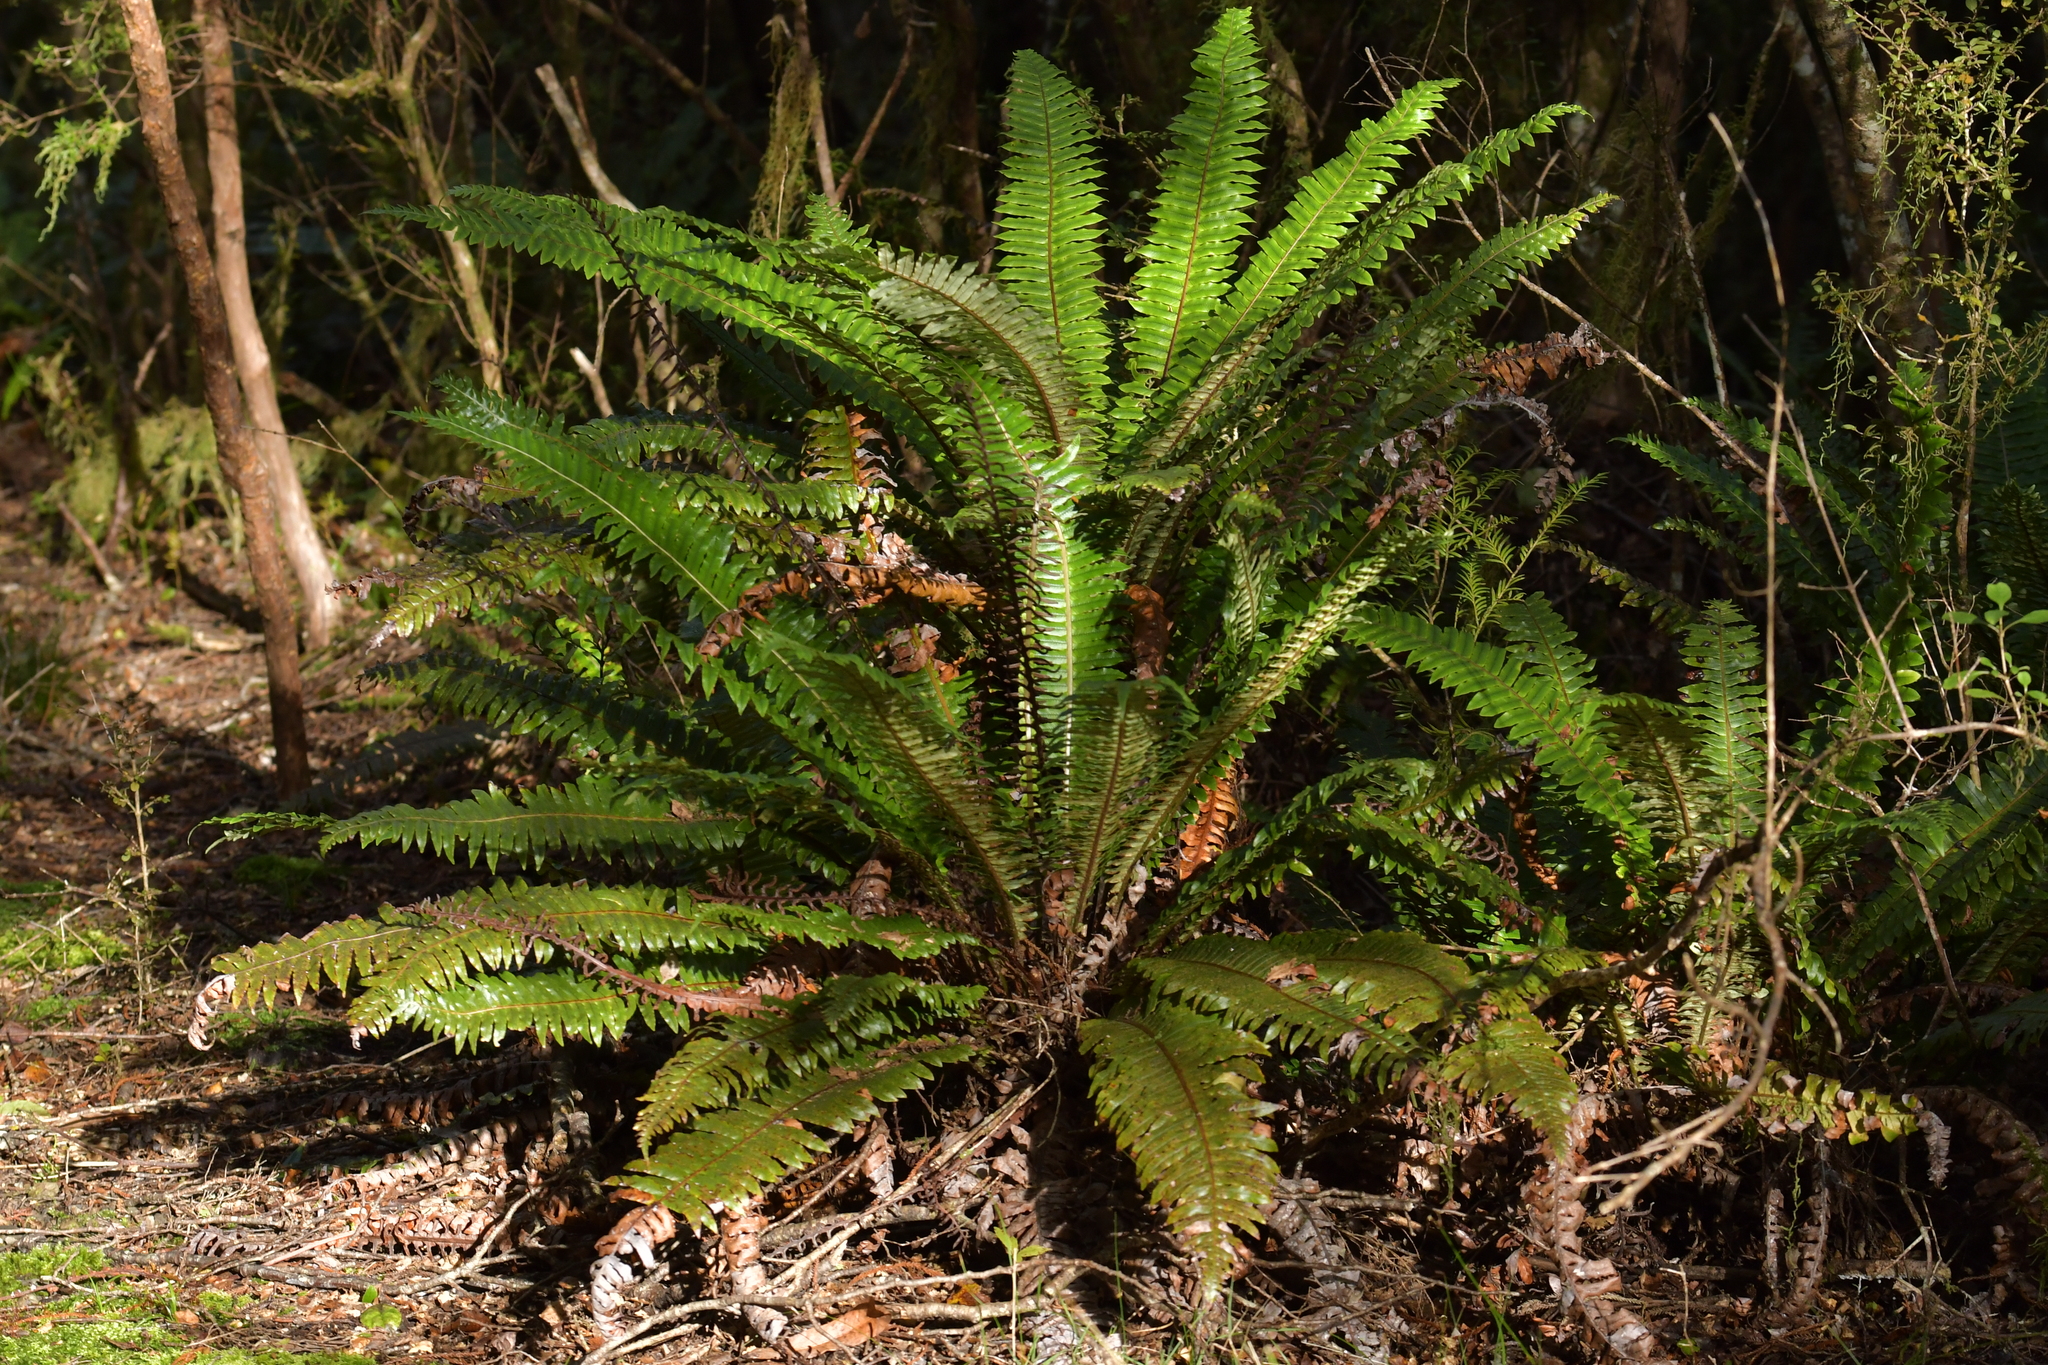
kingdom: Plantae
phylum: Tracheophyta
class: Polypodiopsida
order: Polypodiales
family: Blechnaceae
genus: Lomaria
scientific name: Lomaria discolor
